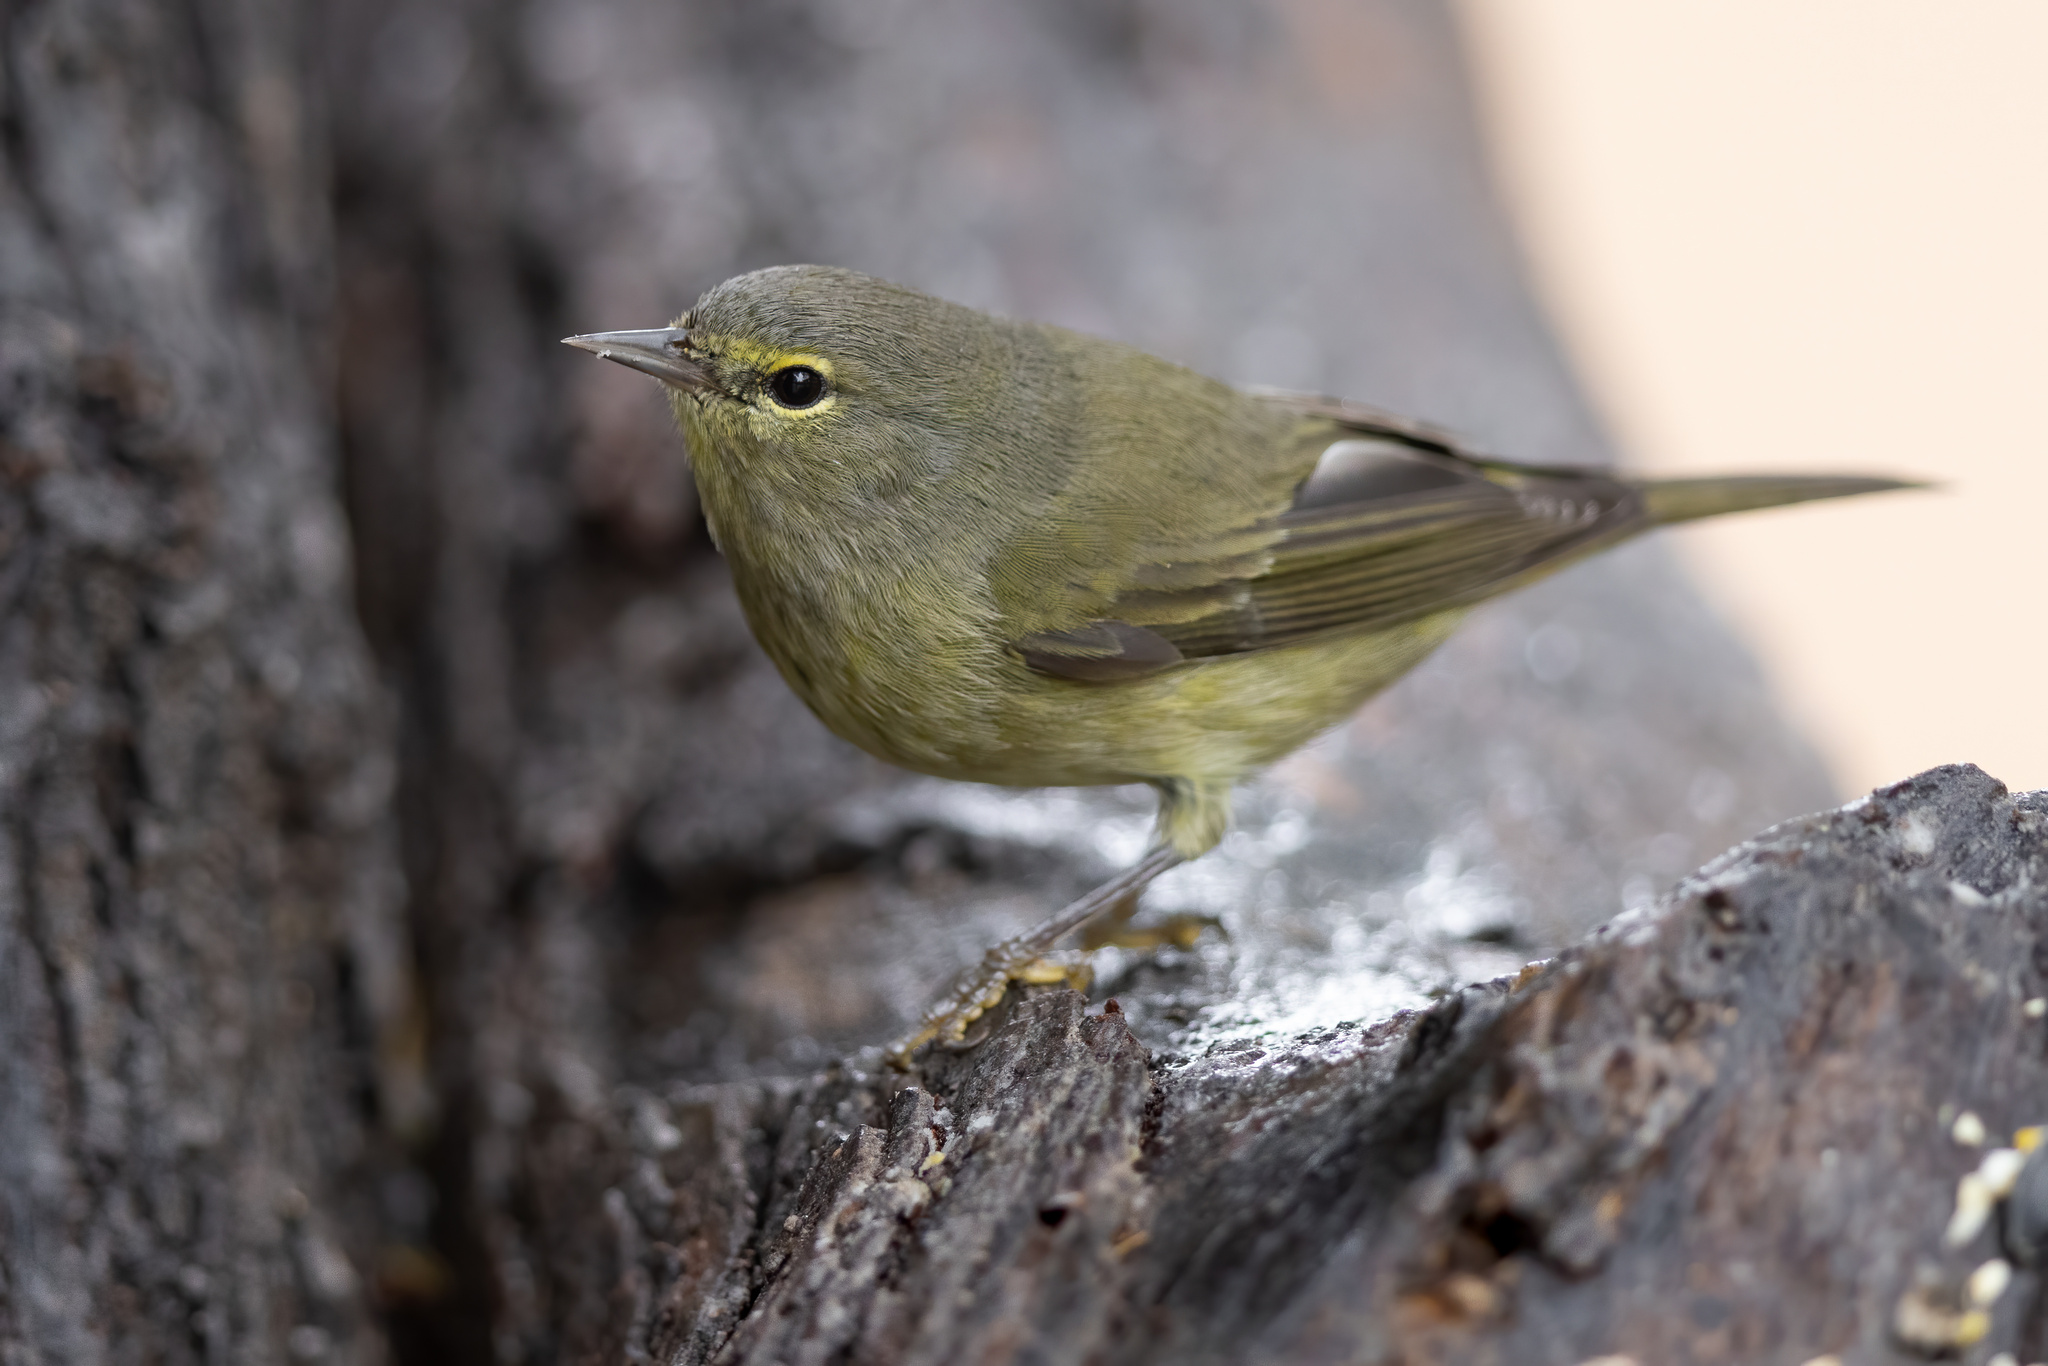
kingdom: Animalia
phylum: Chordata
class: Aves
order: Passeriformes
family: Parulidae
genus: Leiothlypis
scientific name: Leiothlypis celata
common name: Orange-crowned warbler
